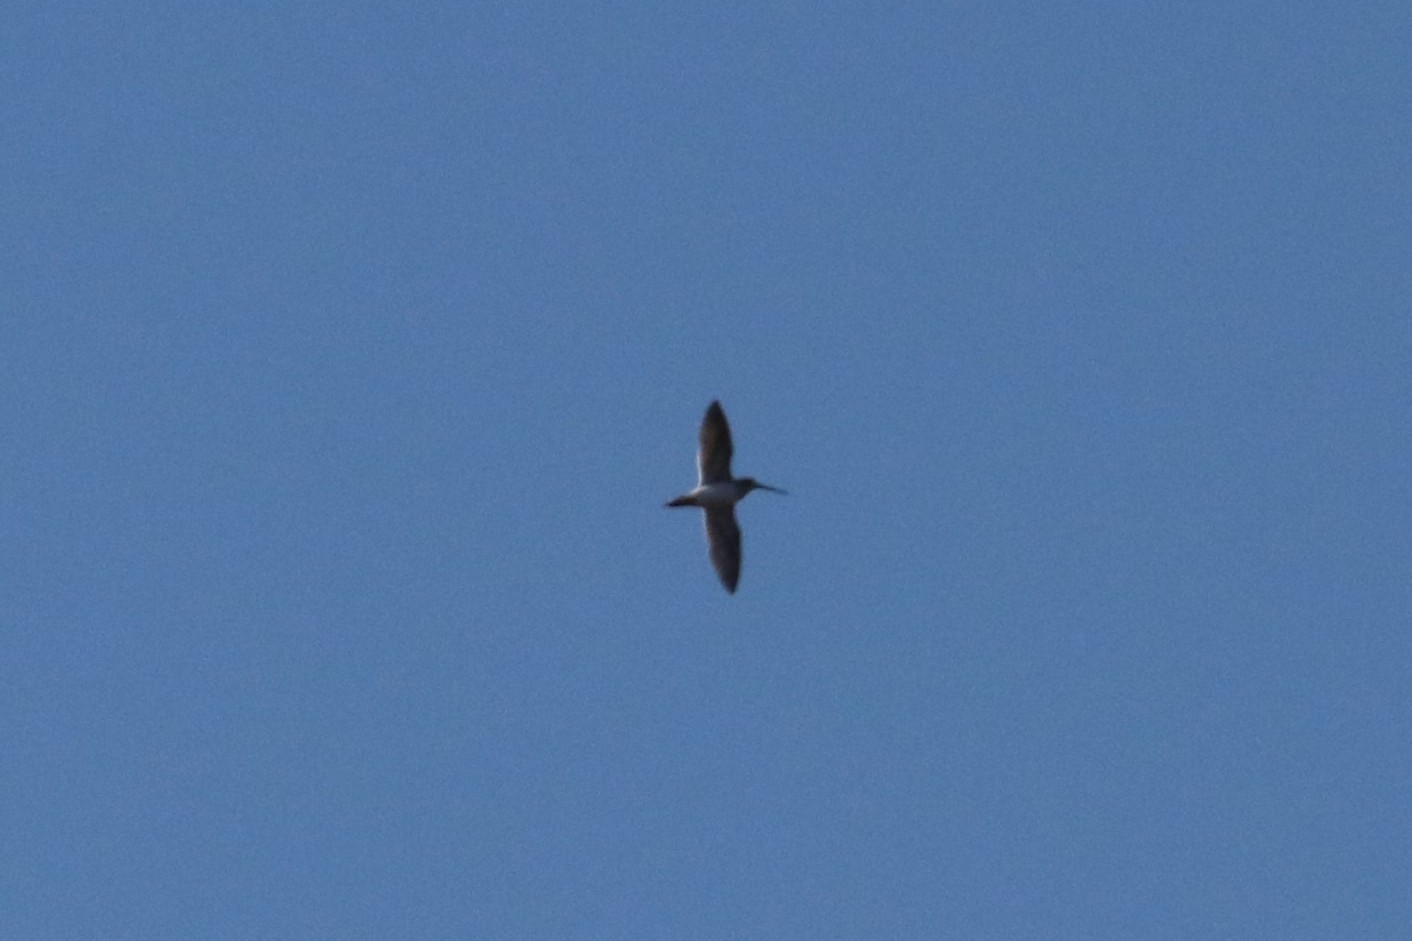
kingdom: Animalia
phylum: Chordata
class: Aves
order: Charadriiformes
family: Scolopacidae
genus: Gallinago
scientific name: Gallinago gallinago
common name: Common snipe
